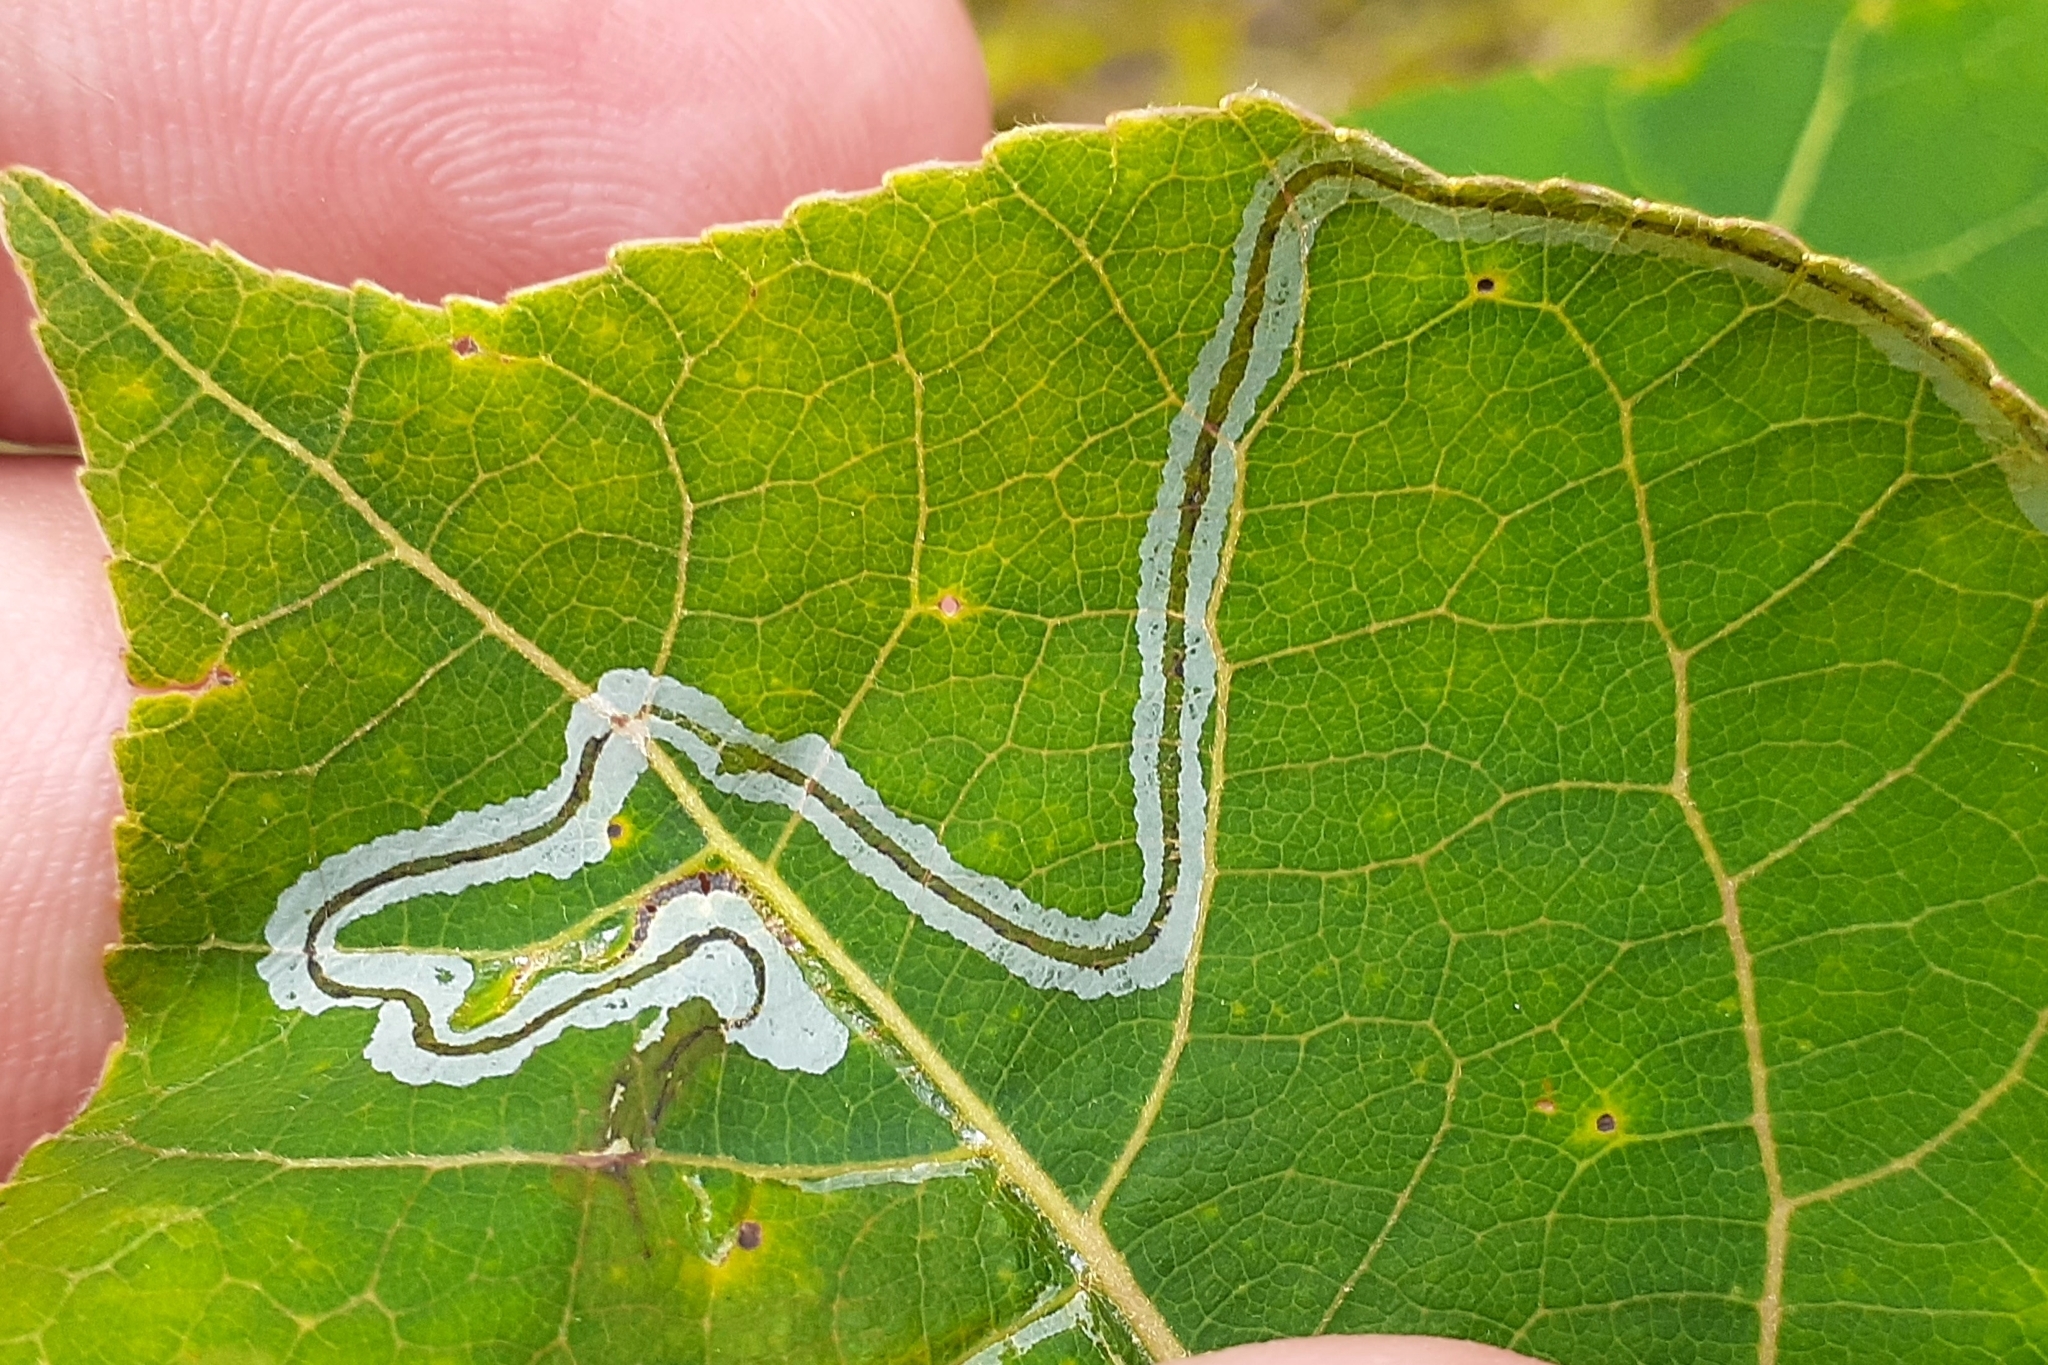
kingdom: Animalia
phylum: Arthropoda
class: Insecta
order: Lepidoptera
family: Gracillariidae
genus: Phyllocnistis
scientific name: Phyllocnistis populiella
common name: Aspen serpentine leafminer moth
